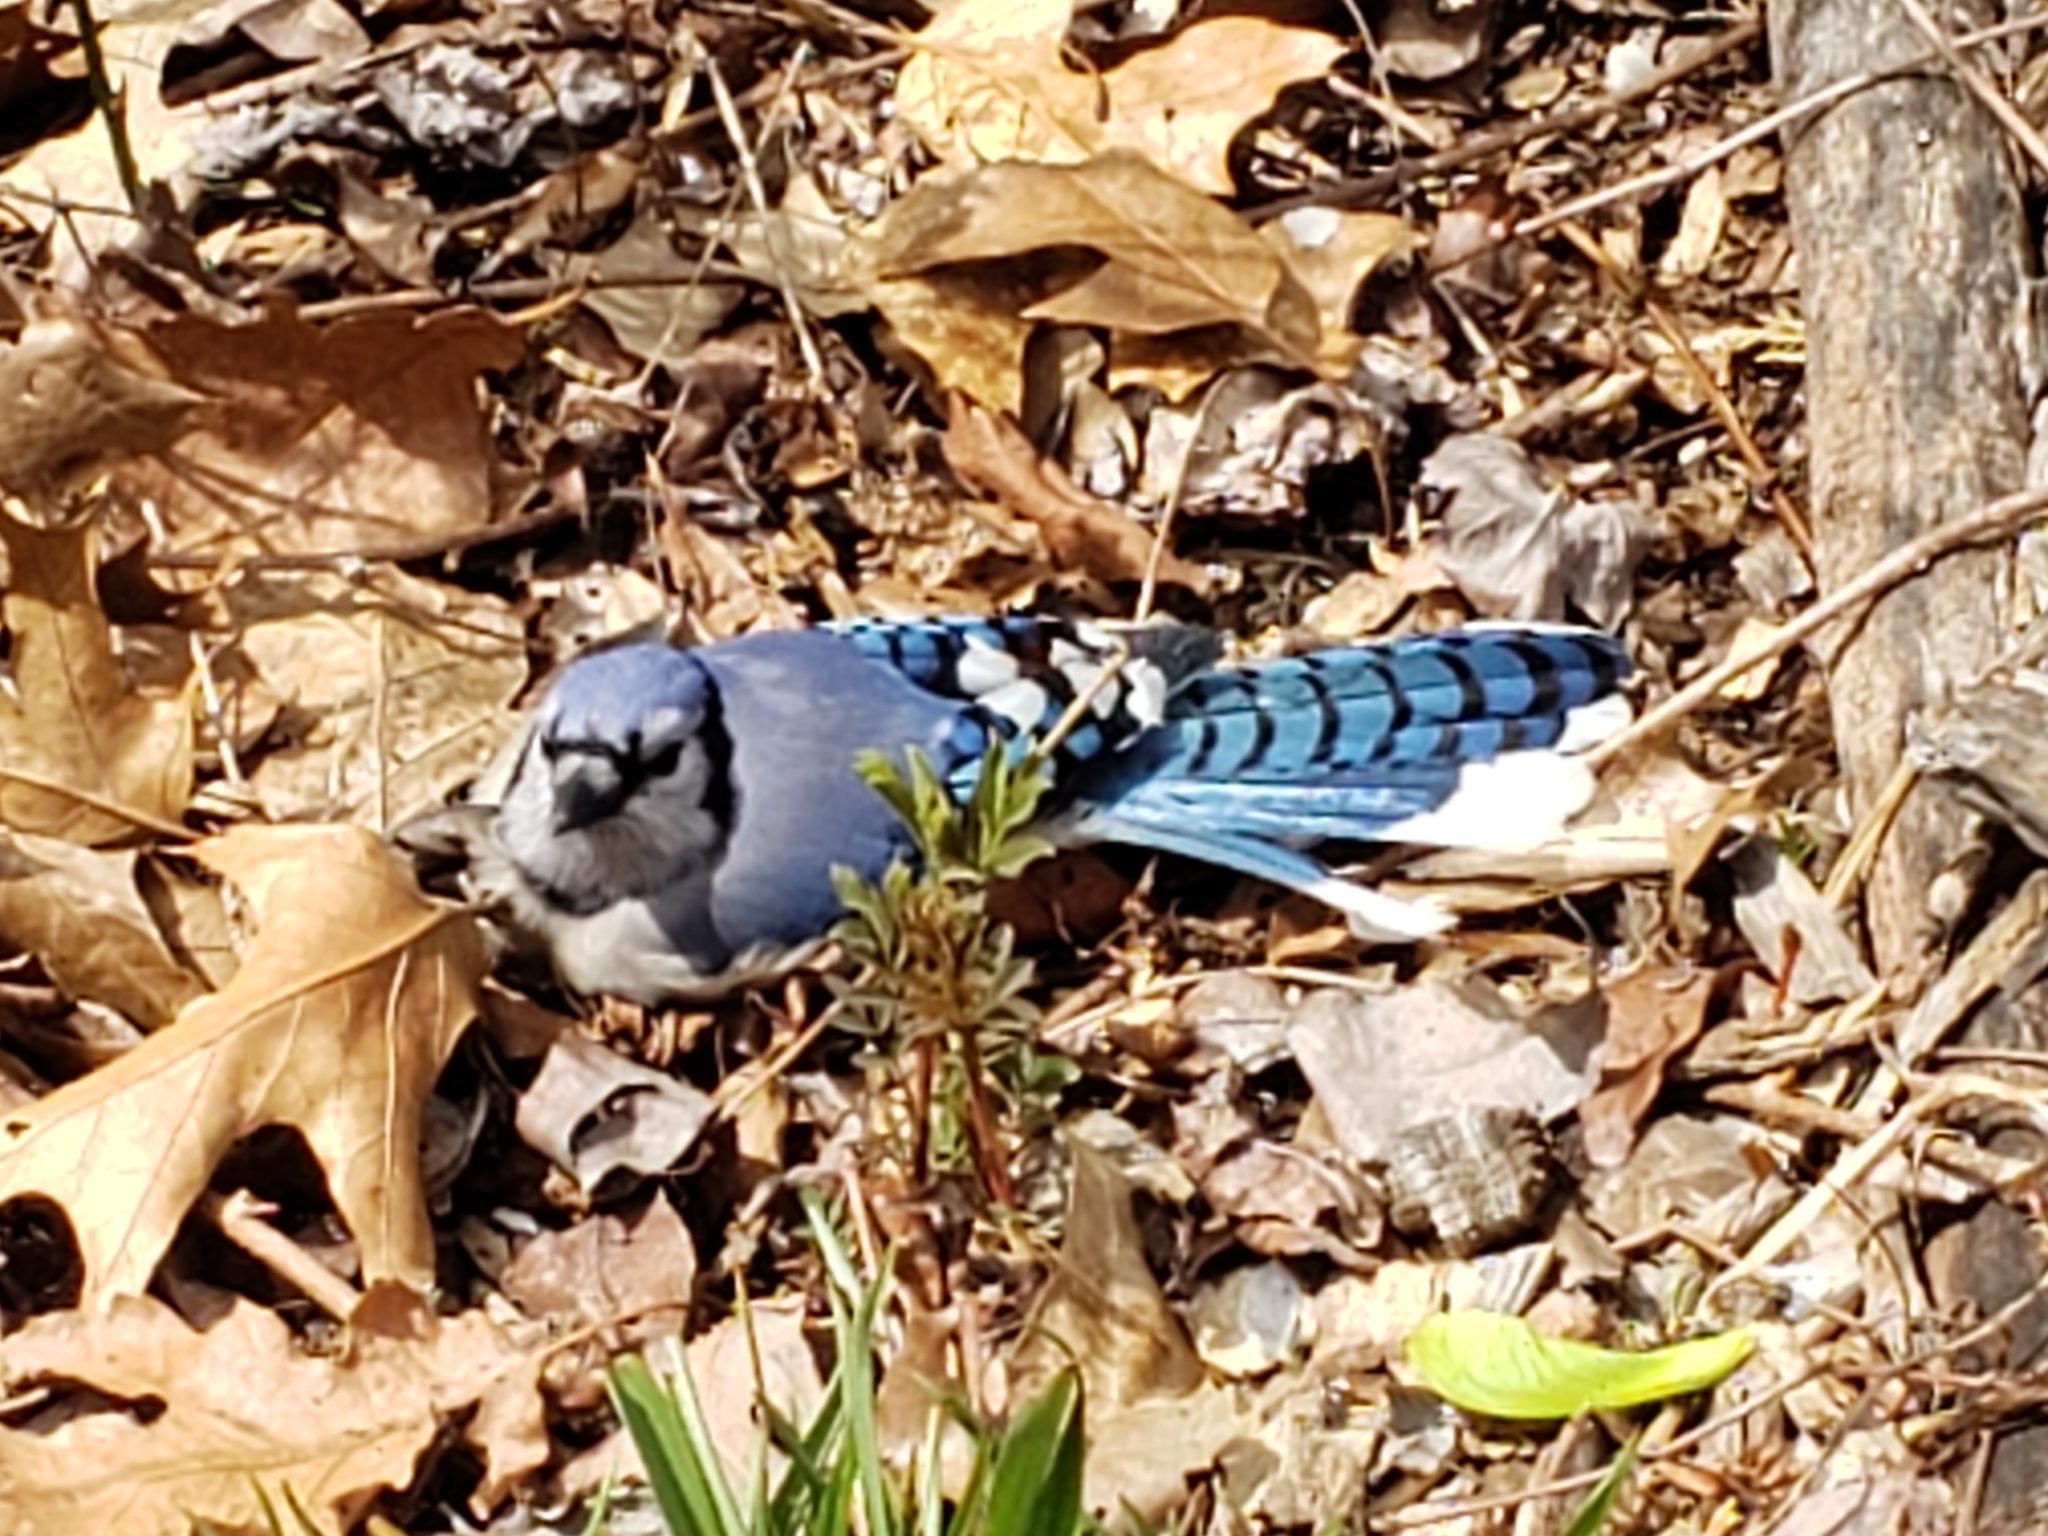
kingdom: Animalia
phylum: Chordata
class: Aves
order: Passeriformes
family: Corvidae
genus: Cyanocitta
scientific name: Cyanocitta cristata
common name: Blue jay
